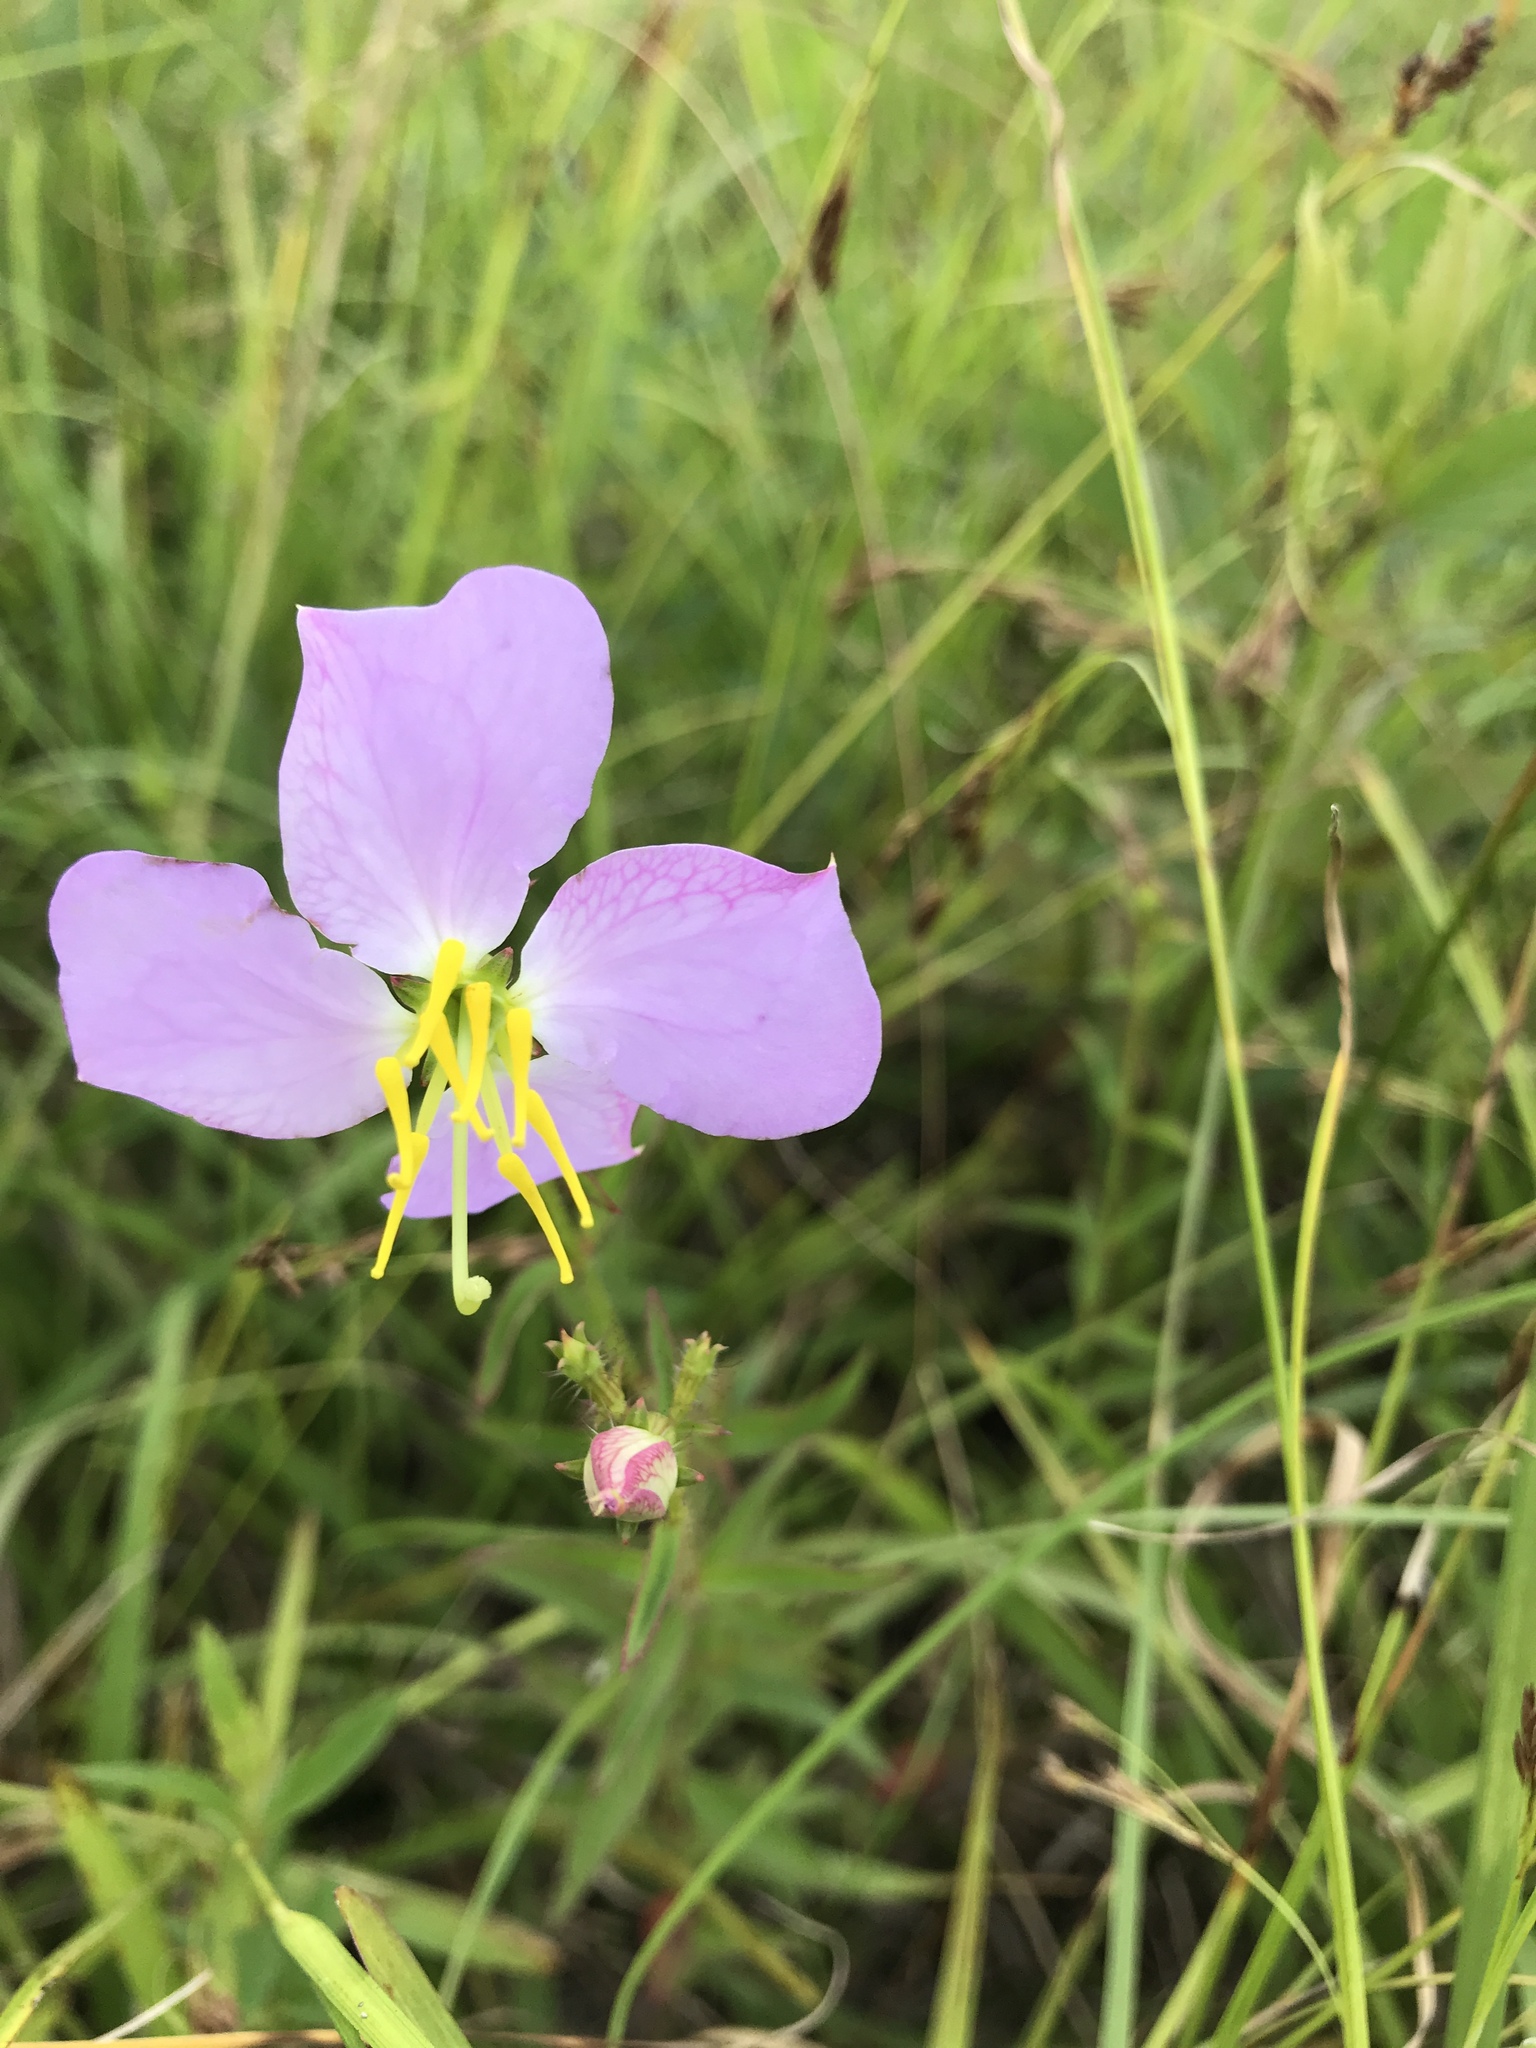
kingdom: Plantae
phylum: Tracheophyta
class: Magnoliopsida
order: Myrtales
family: Melastomataceae
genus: Rhexia
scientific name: Rhexia mariana
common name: Dull meadow-pitcher
